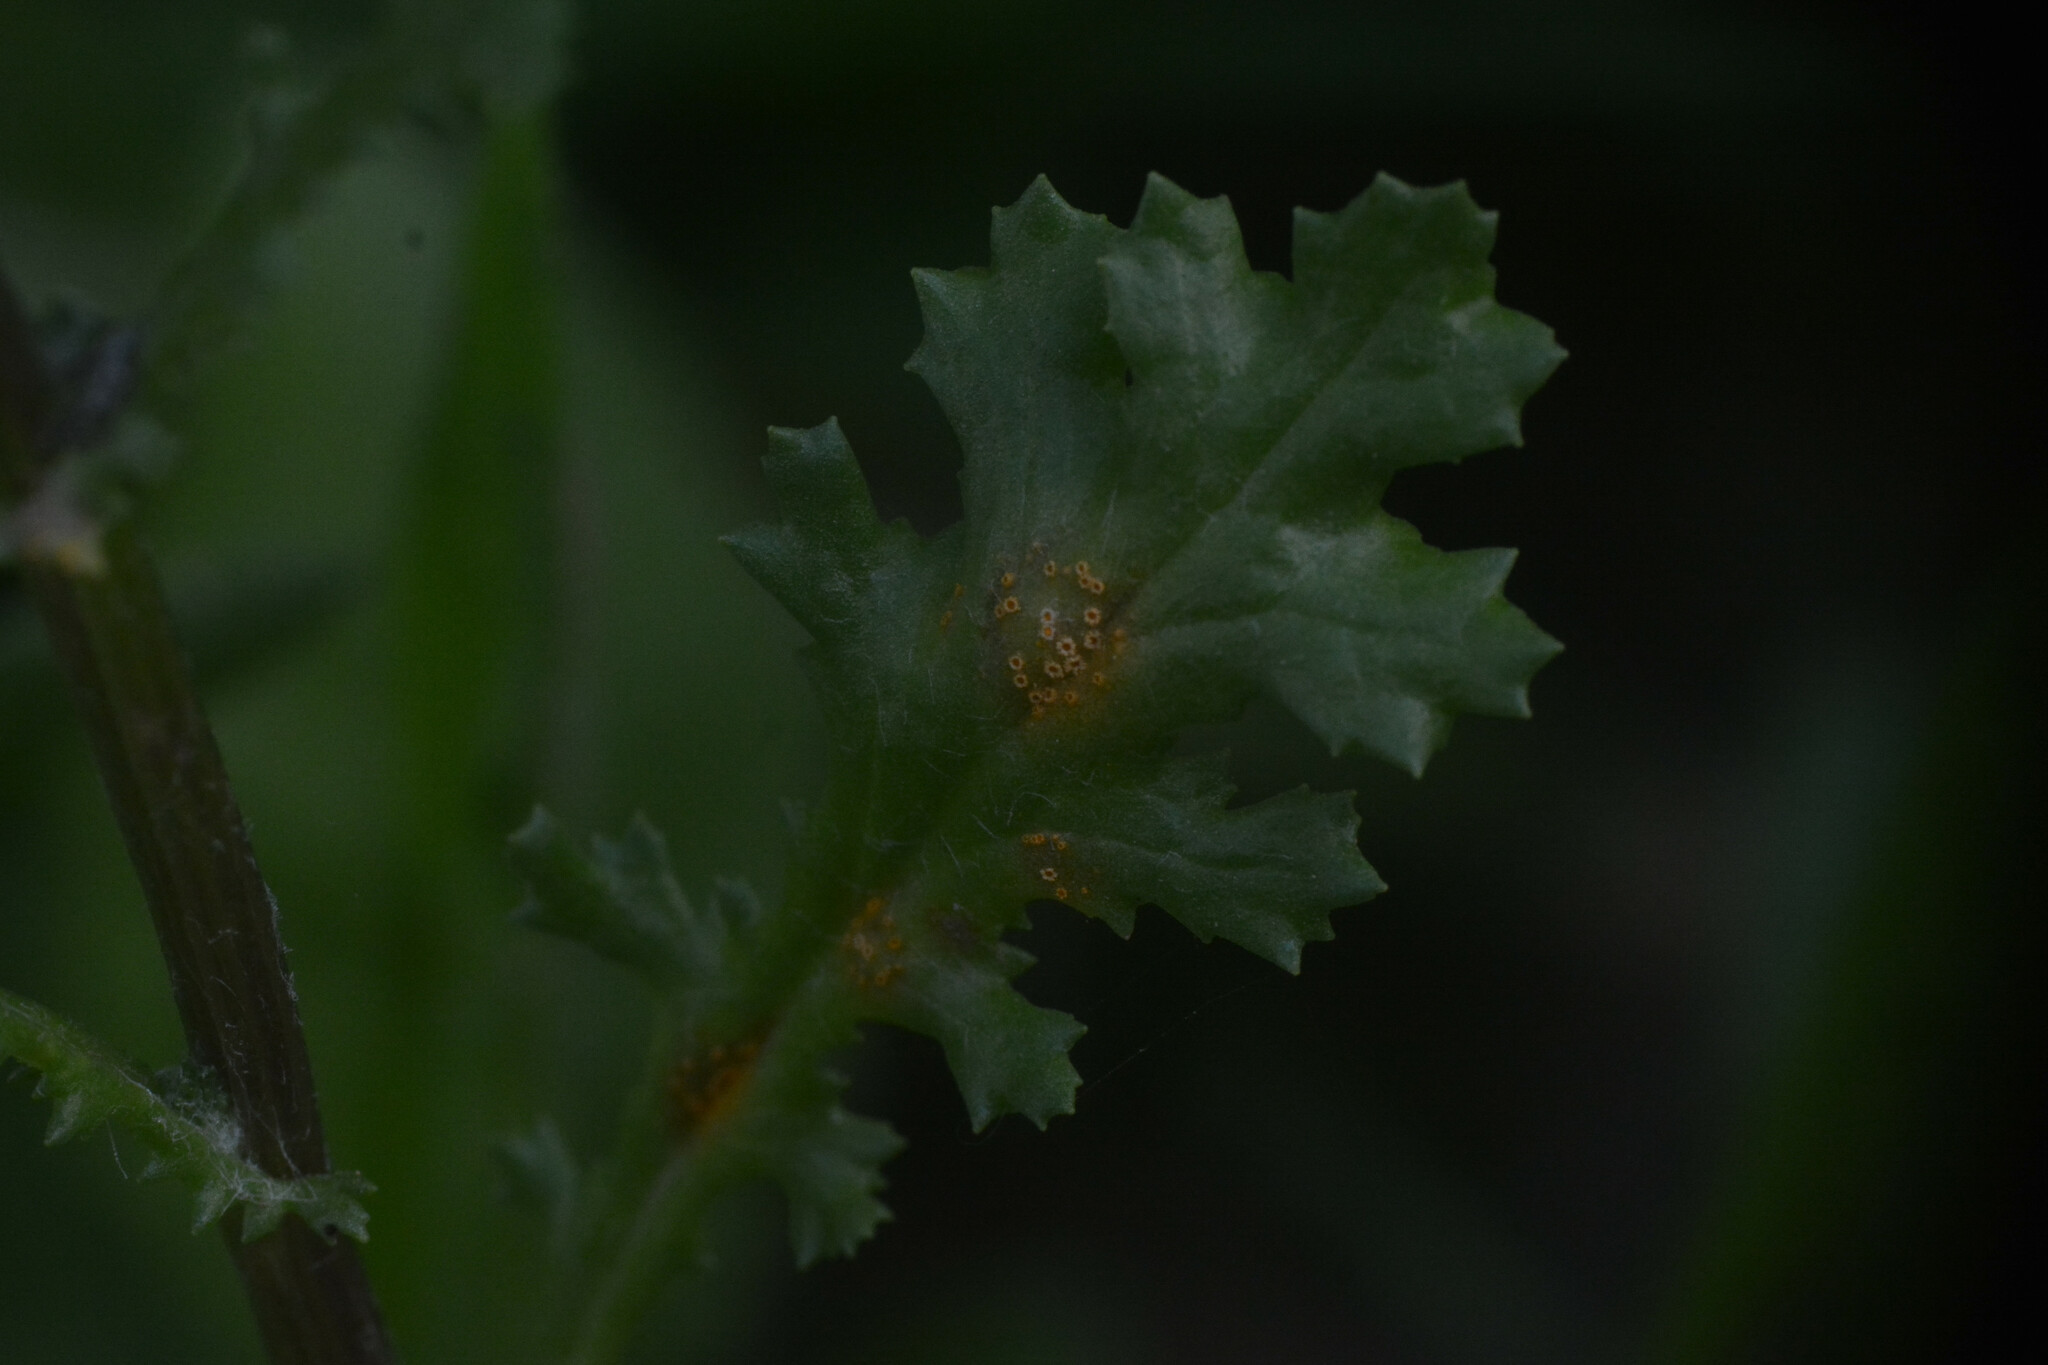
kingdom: Fungi
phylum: Basidiomycota
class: Pucciniomycetes
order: Pucciniales
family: Pucciniaceae
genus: Puccinia
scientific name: Puccinia lagenophorae
